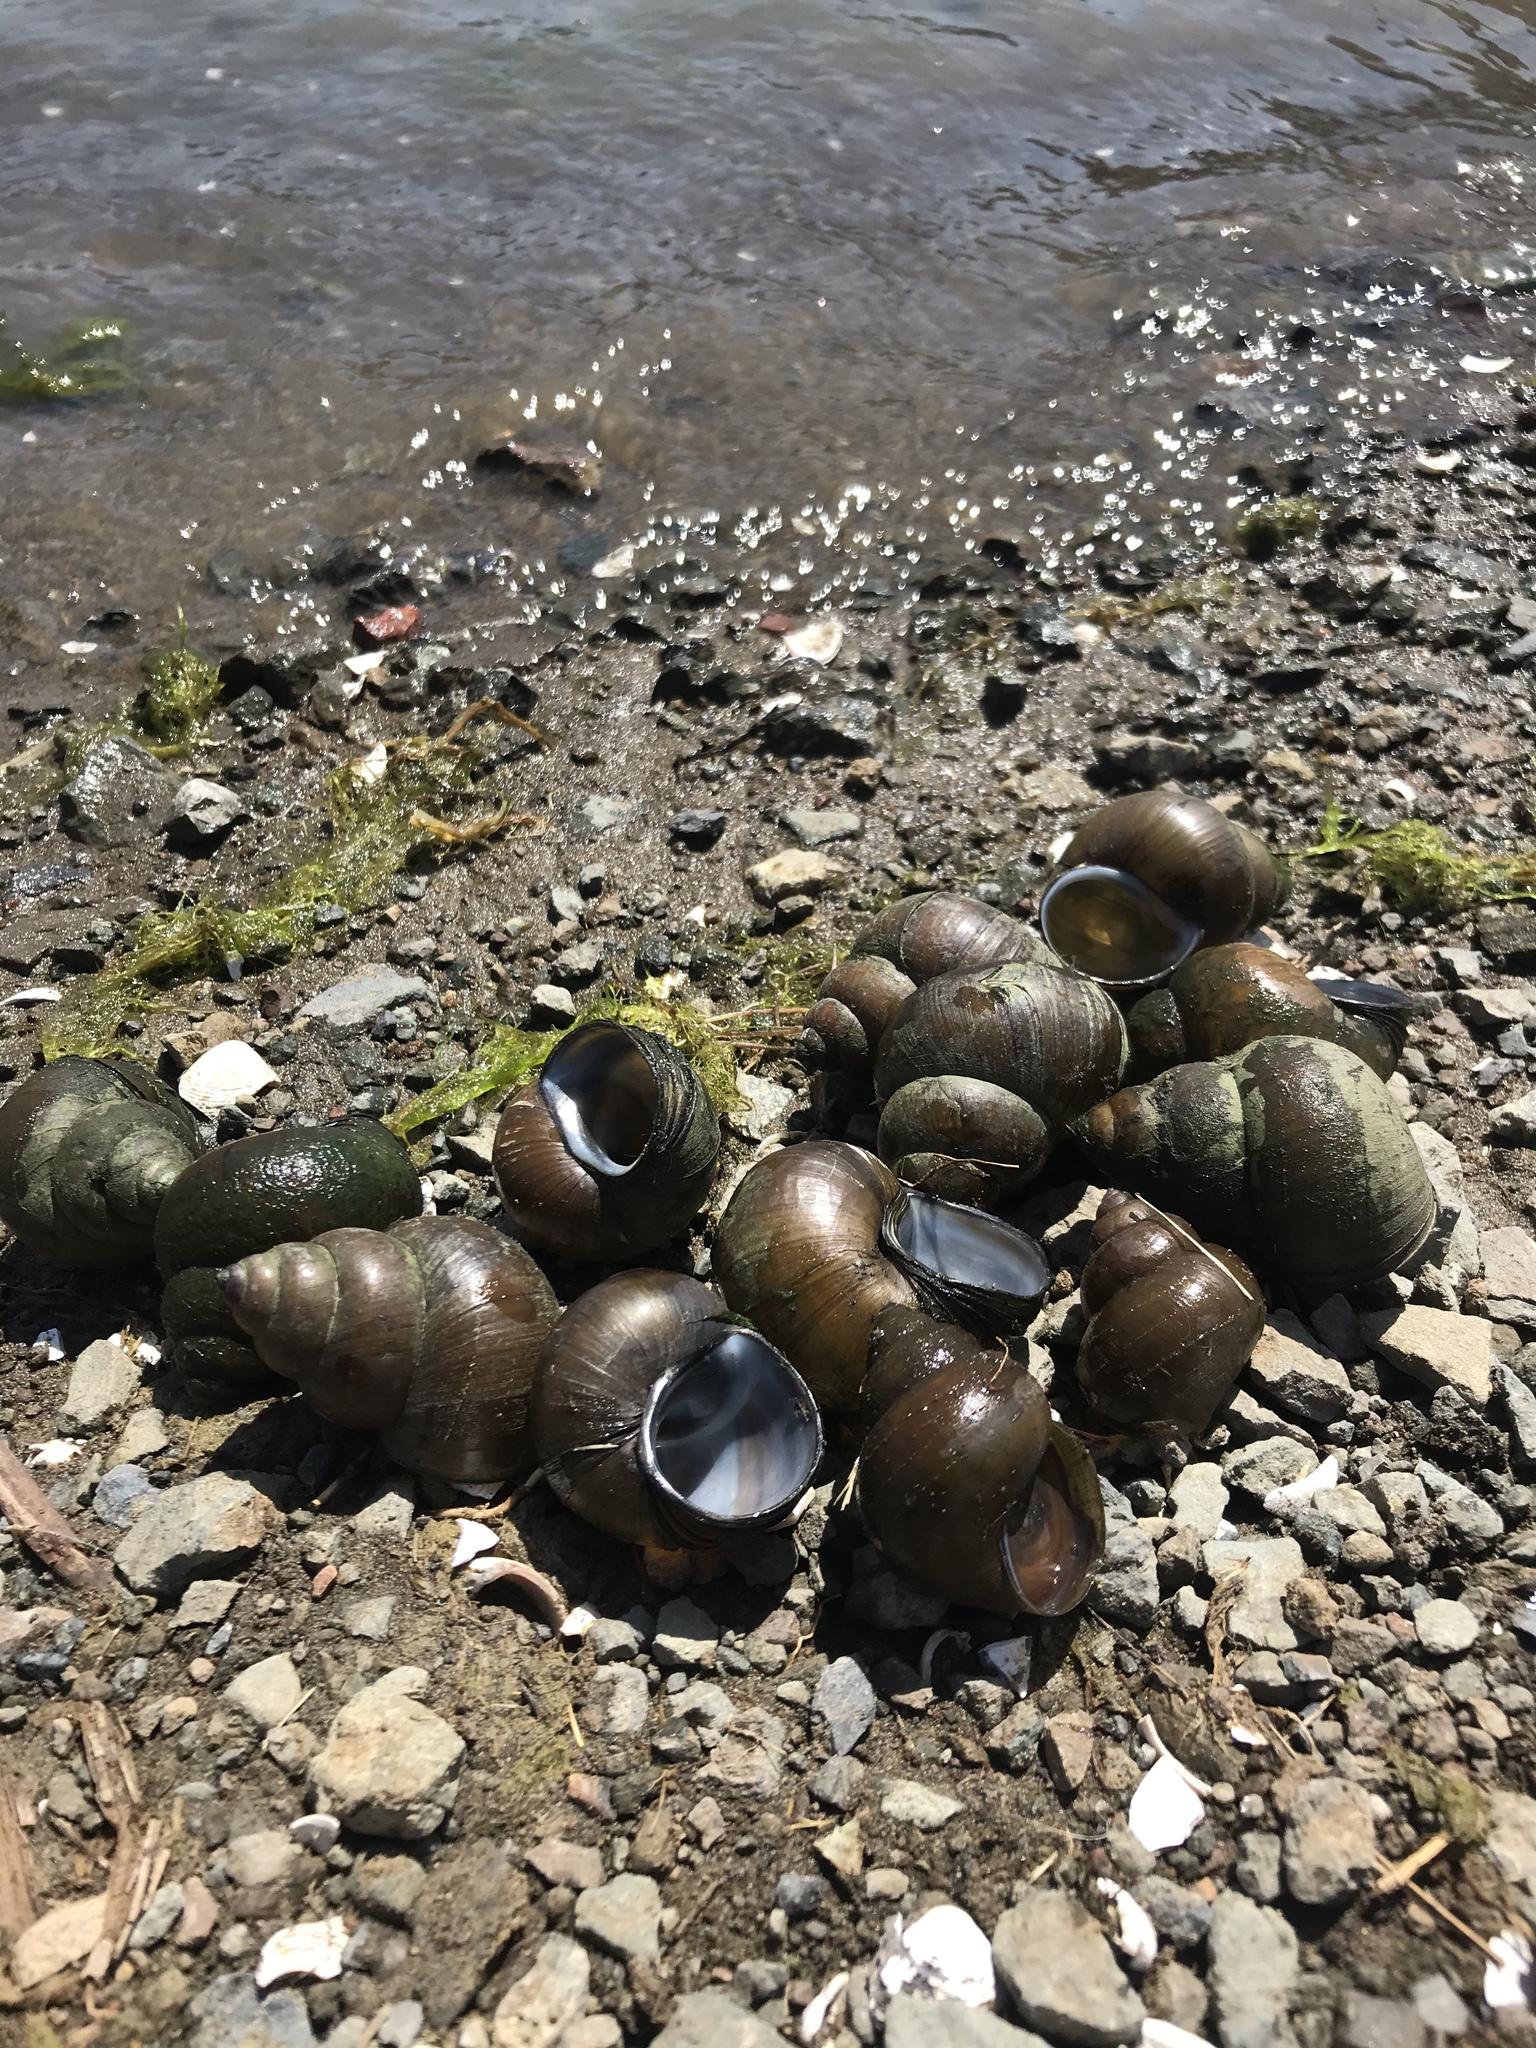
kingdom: Animalia
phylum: Mollusca
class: Gastropoda
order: Architaenioglossa
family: Viviparidae
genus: Cipangopaludina
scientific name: Cipangopaludina chinensis
